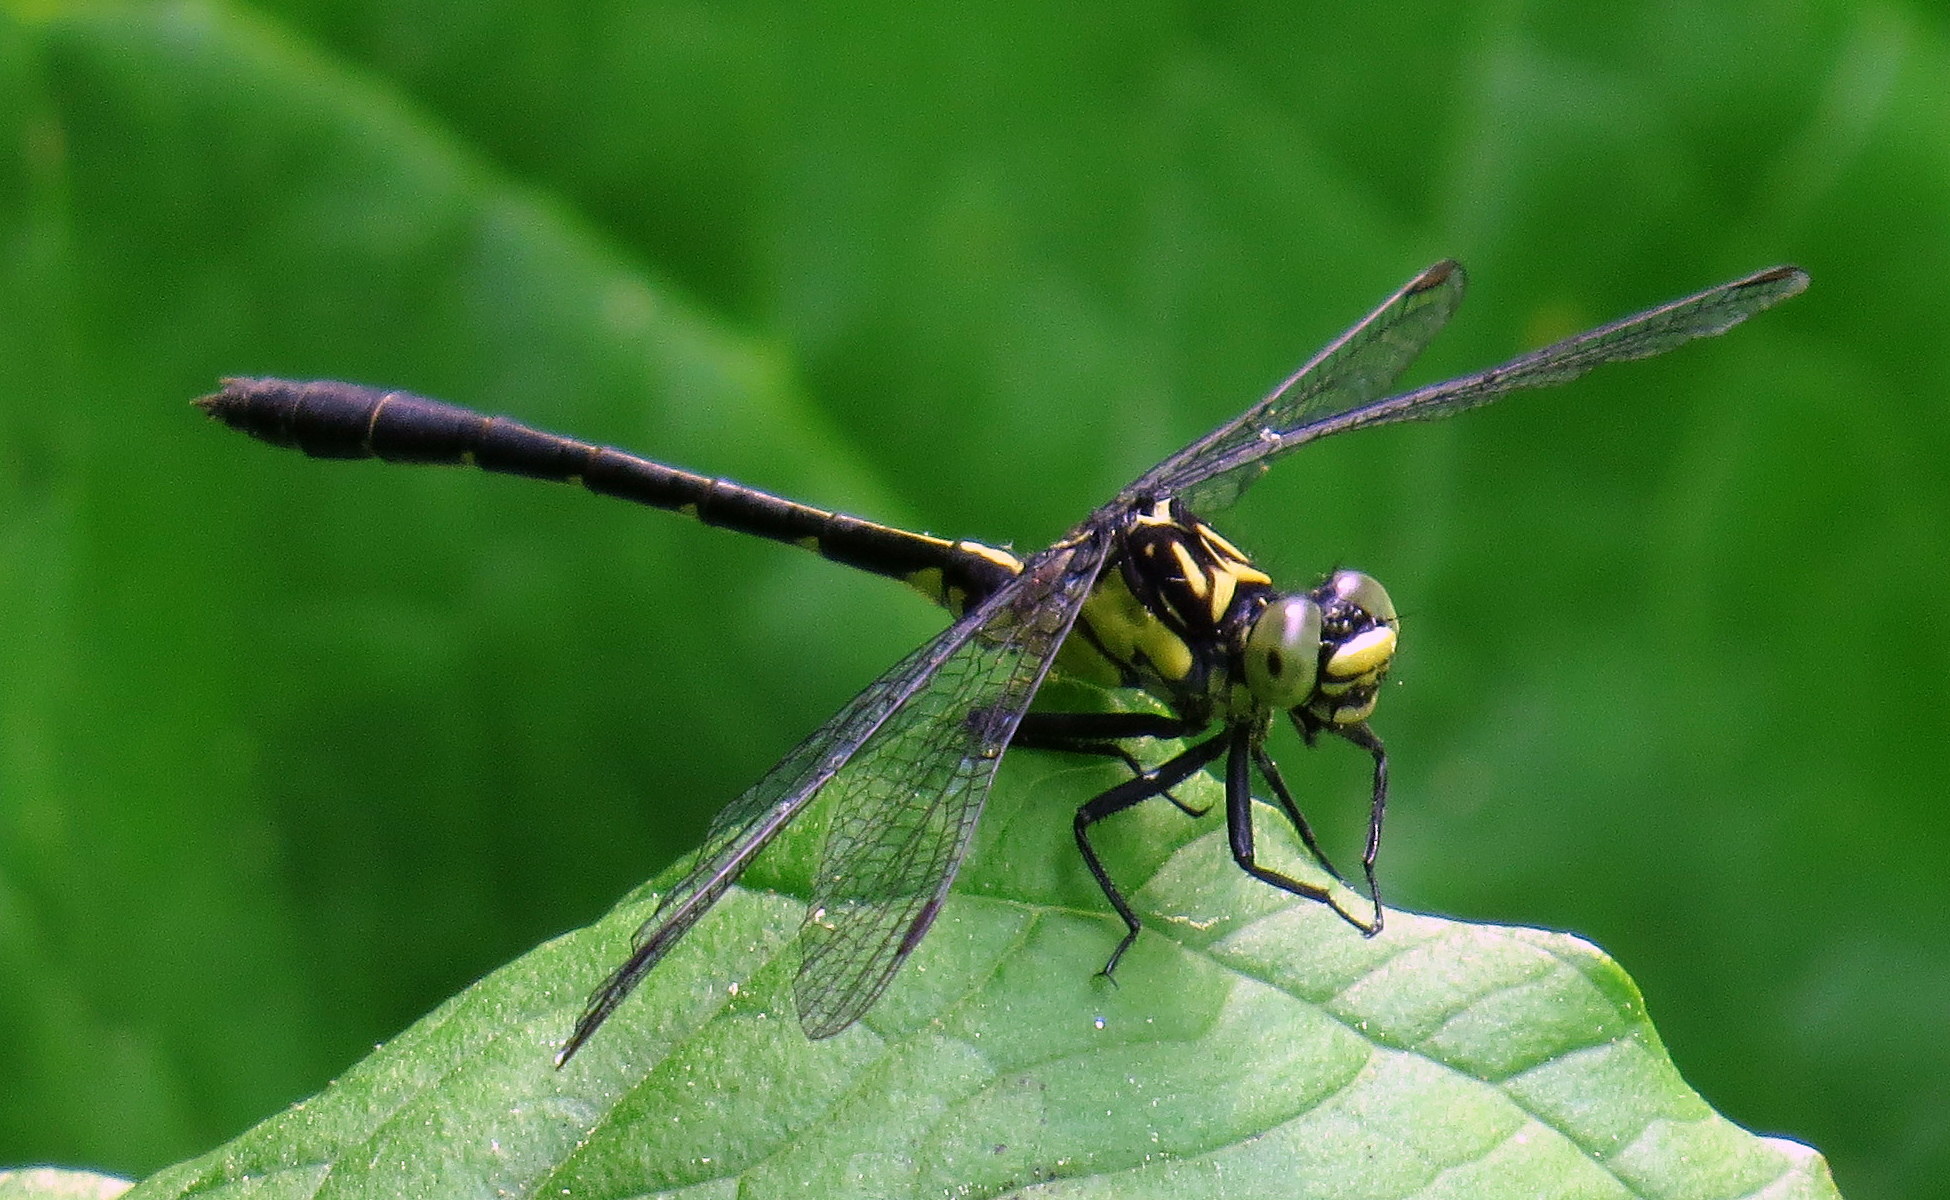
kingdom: Animalia
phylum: Arthropoda
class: Insecta
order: Odonata
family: Gomphidae
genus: Lanthus
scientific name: Lanthus vernalis
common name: Southern pygmy clubtail
